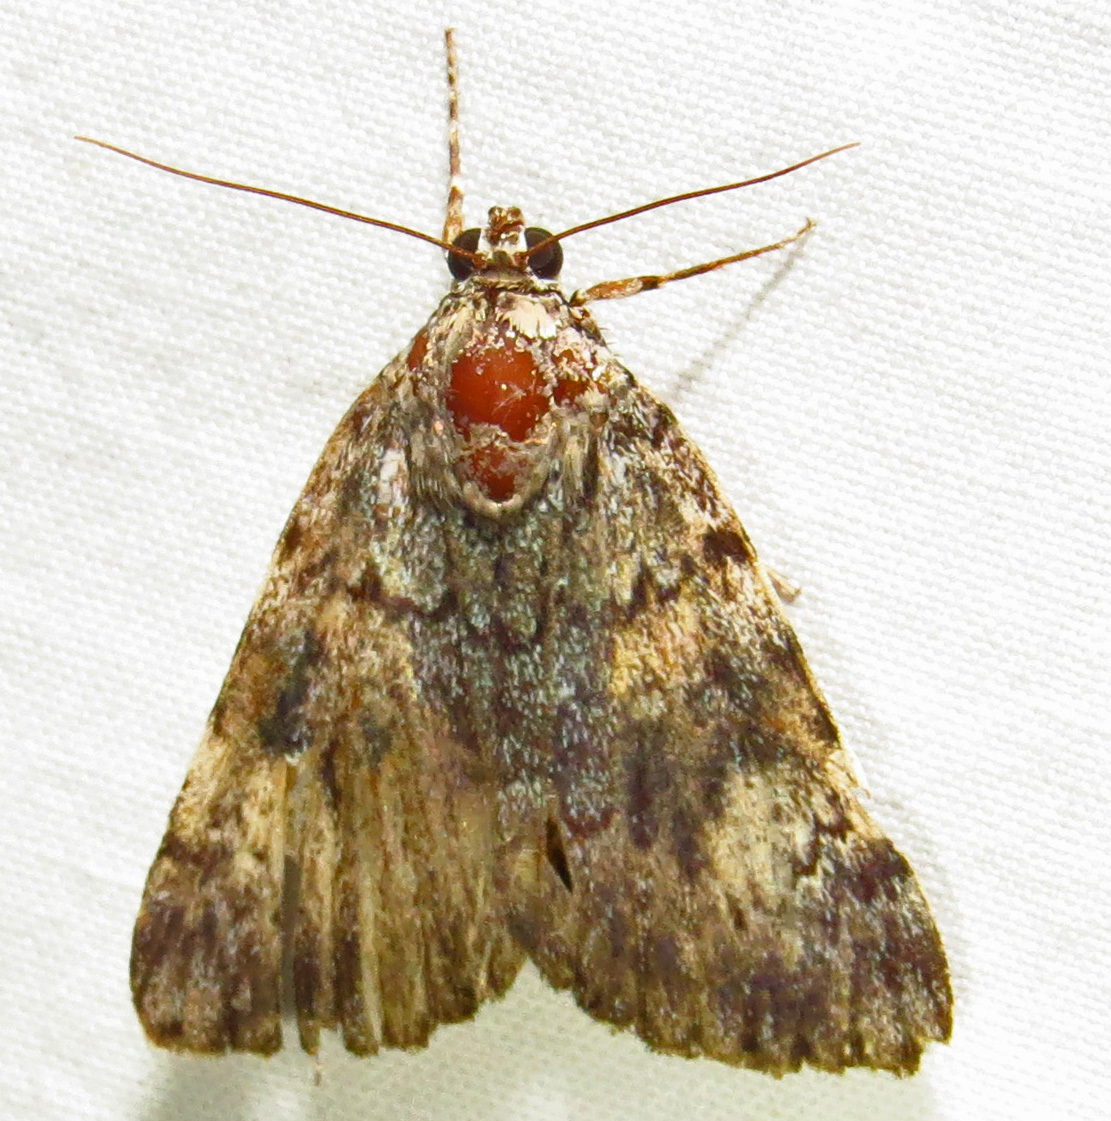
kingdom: Animalia
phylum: Arthropoda
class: Insecta
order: Lepidoptera
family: Erebidae
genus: Catocala
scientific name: Catocala lineella
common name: Little lined underwing
